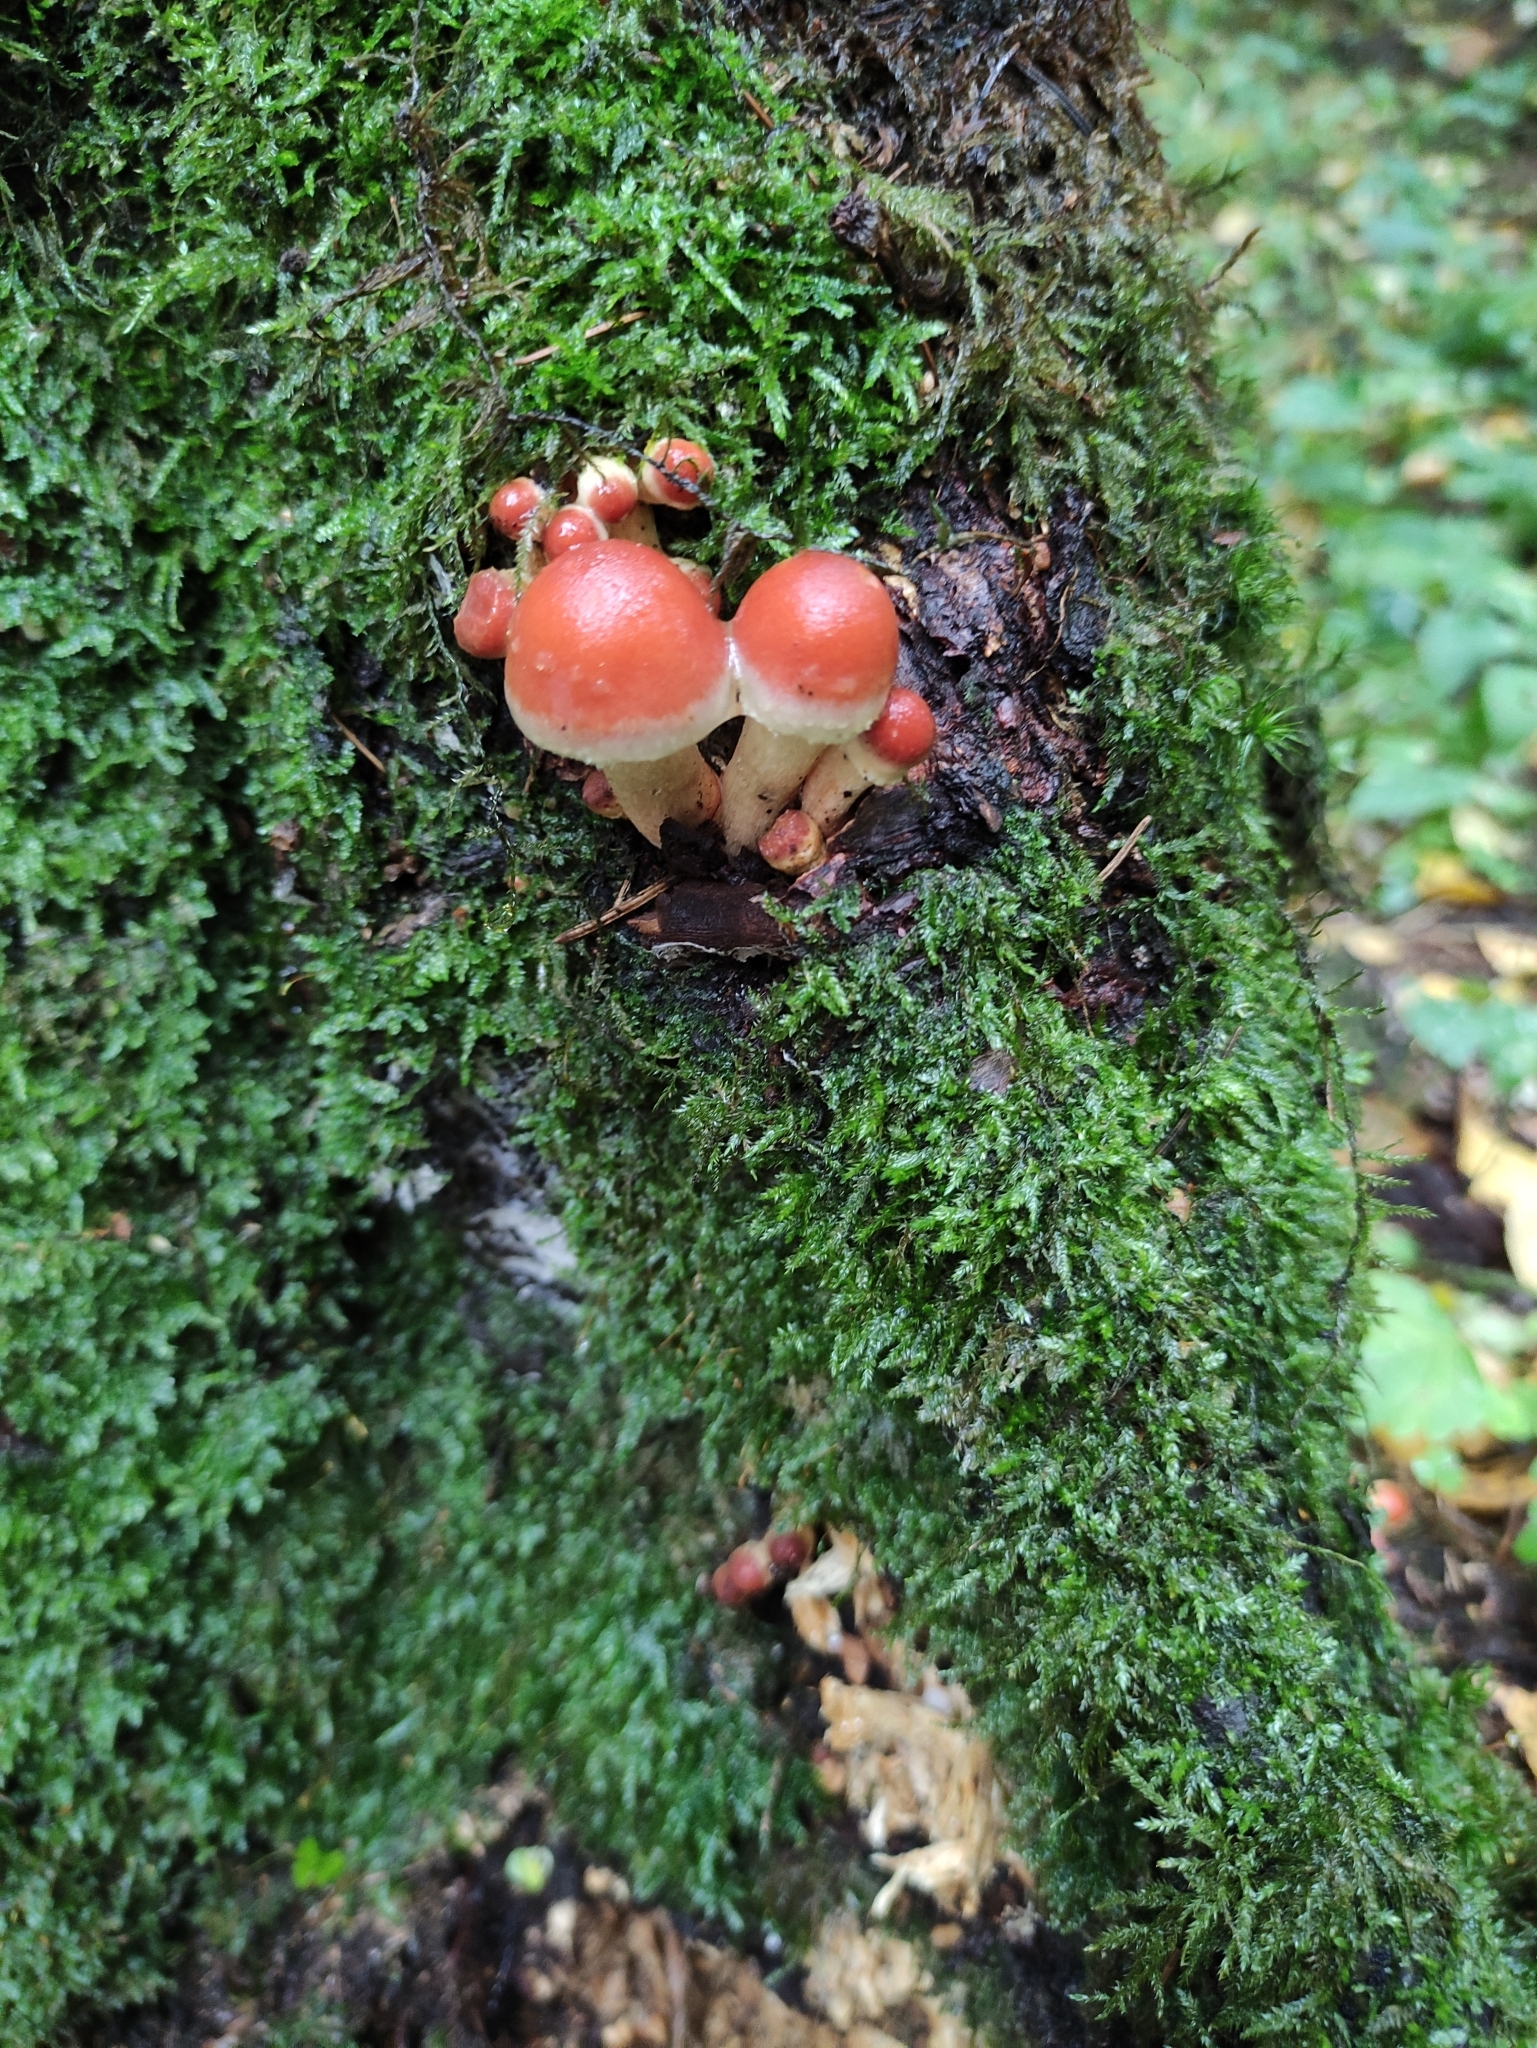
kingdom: Fungi
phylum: Basidiomycota
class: Agaricomycetes
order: Agaricales
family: Strophariaceae
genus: Hypholoma
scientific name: Hypholoma lateritium
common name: Brick caps
